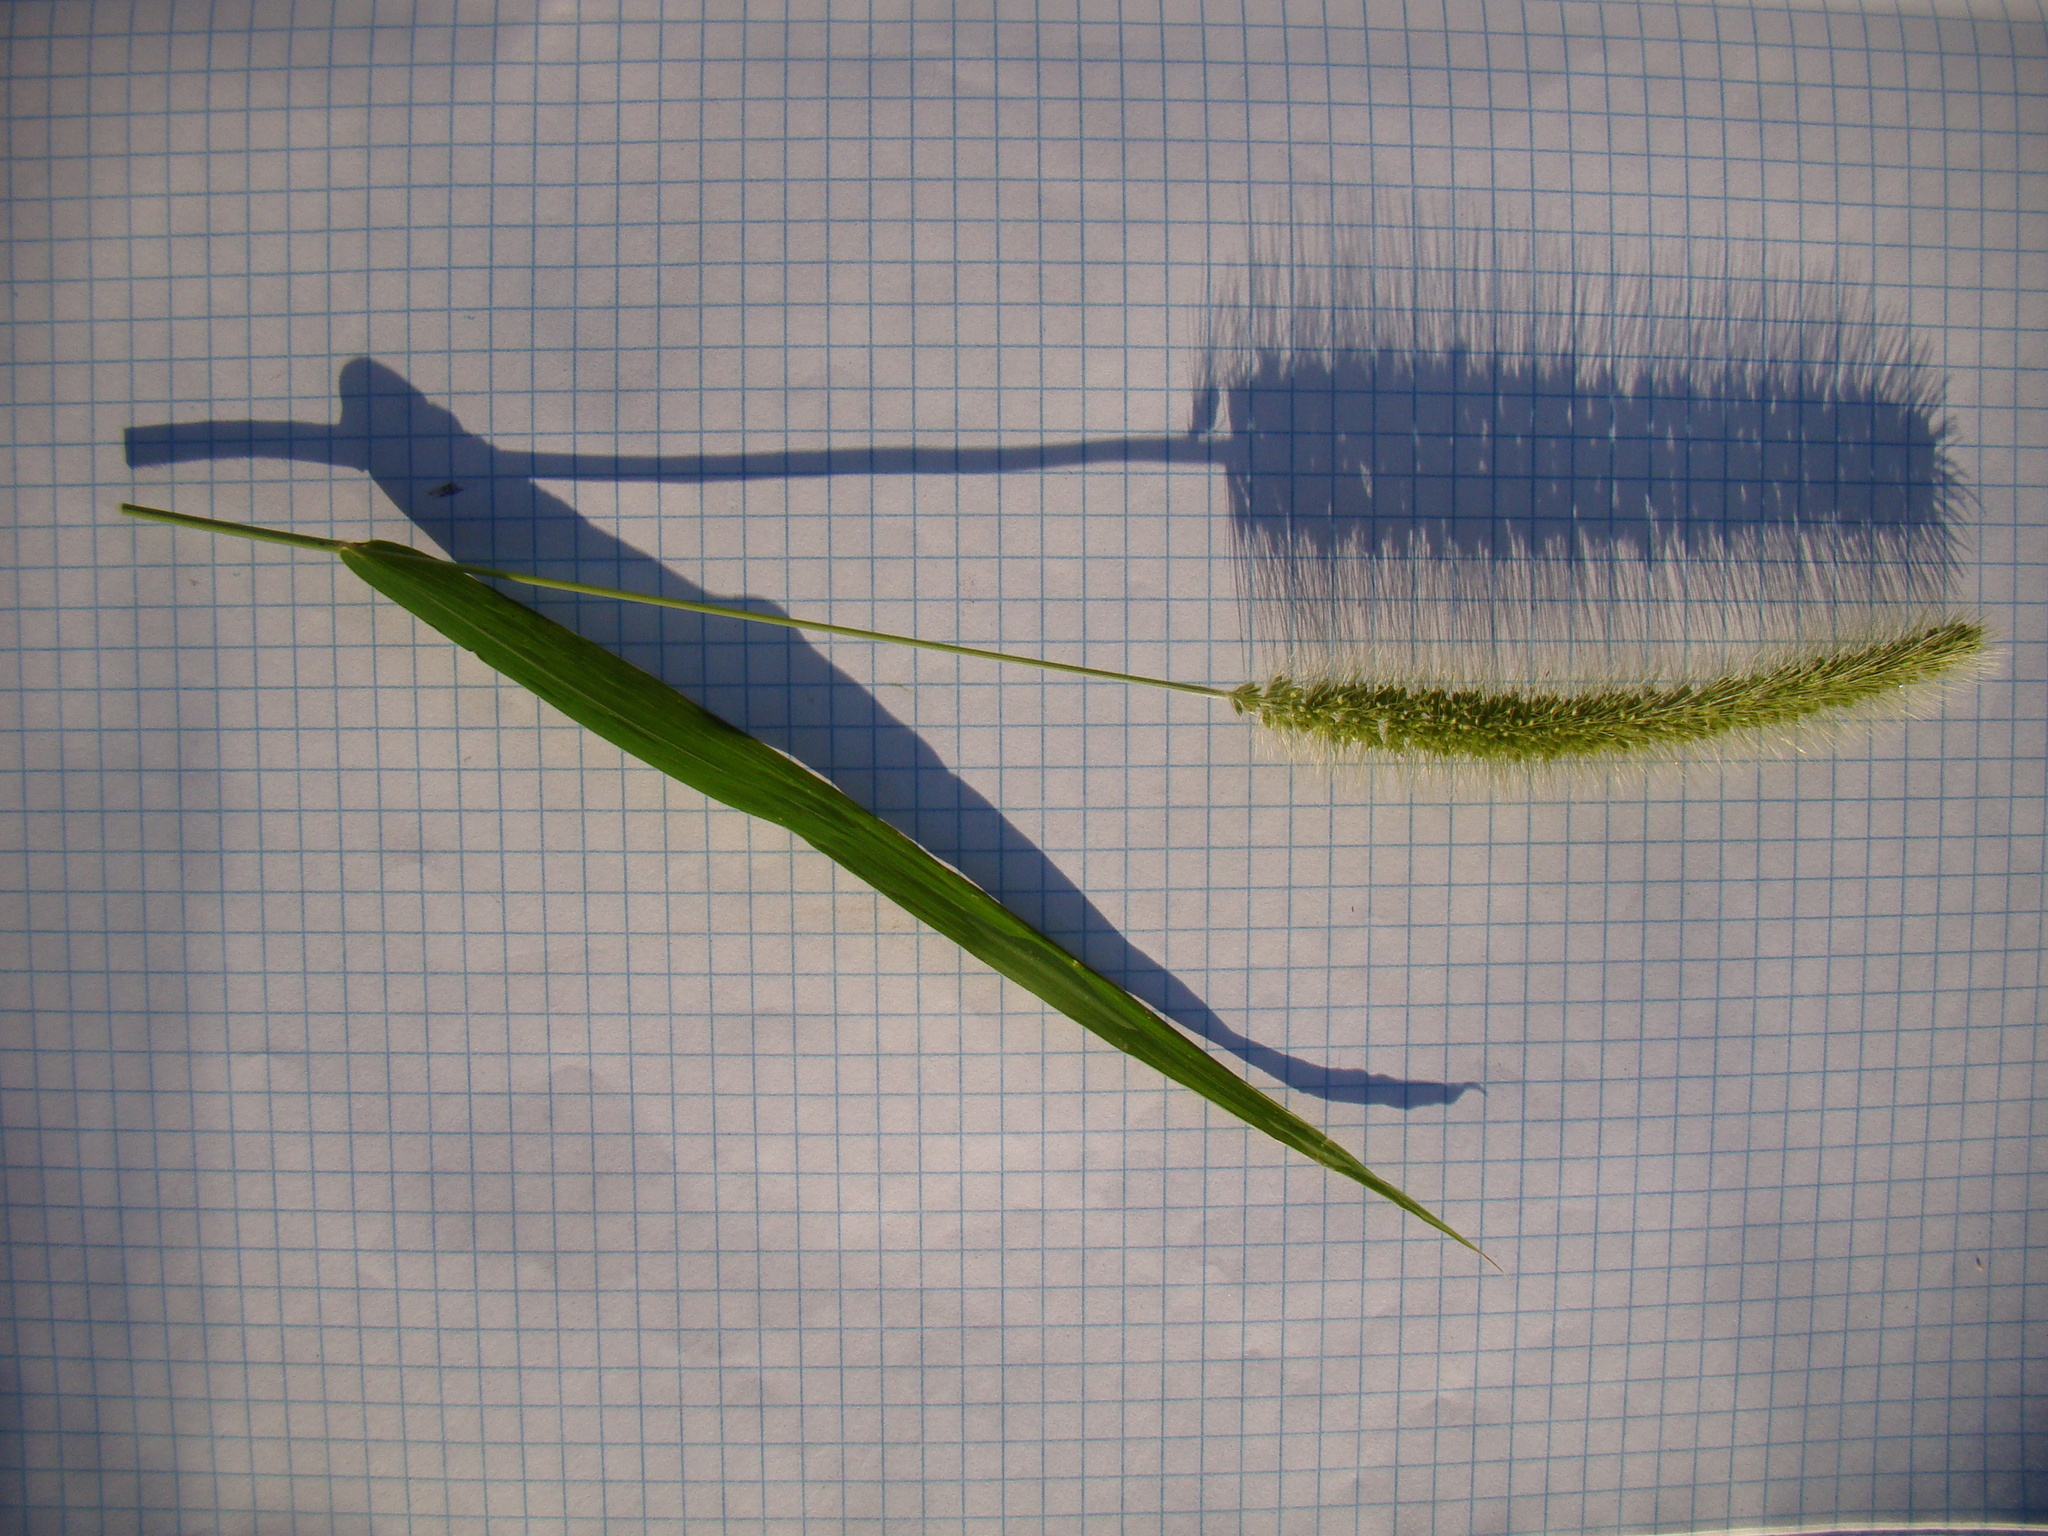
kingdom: Plantae
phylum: Tracheophyta
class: Liliopsida
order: Poales
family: Poaceae
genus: Setaria
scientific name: Setaria viridis
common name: Green bristlegrass
